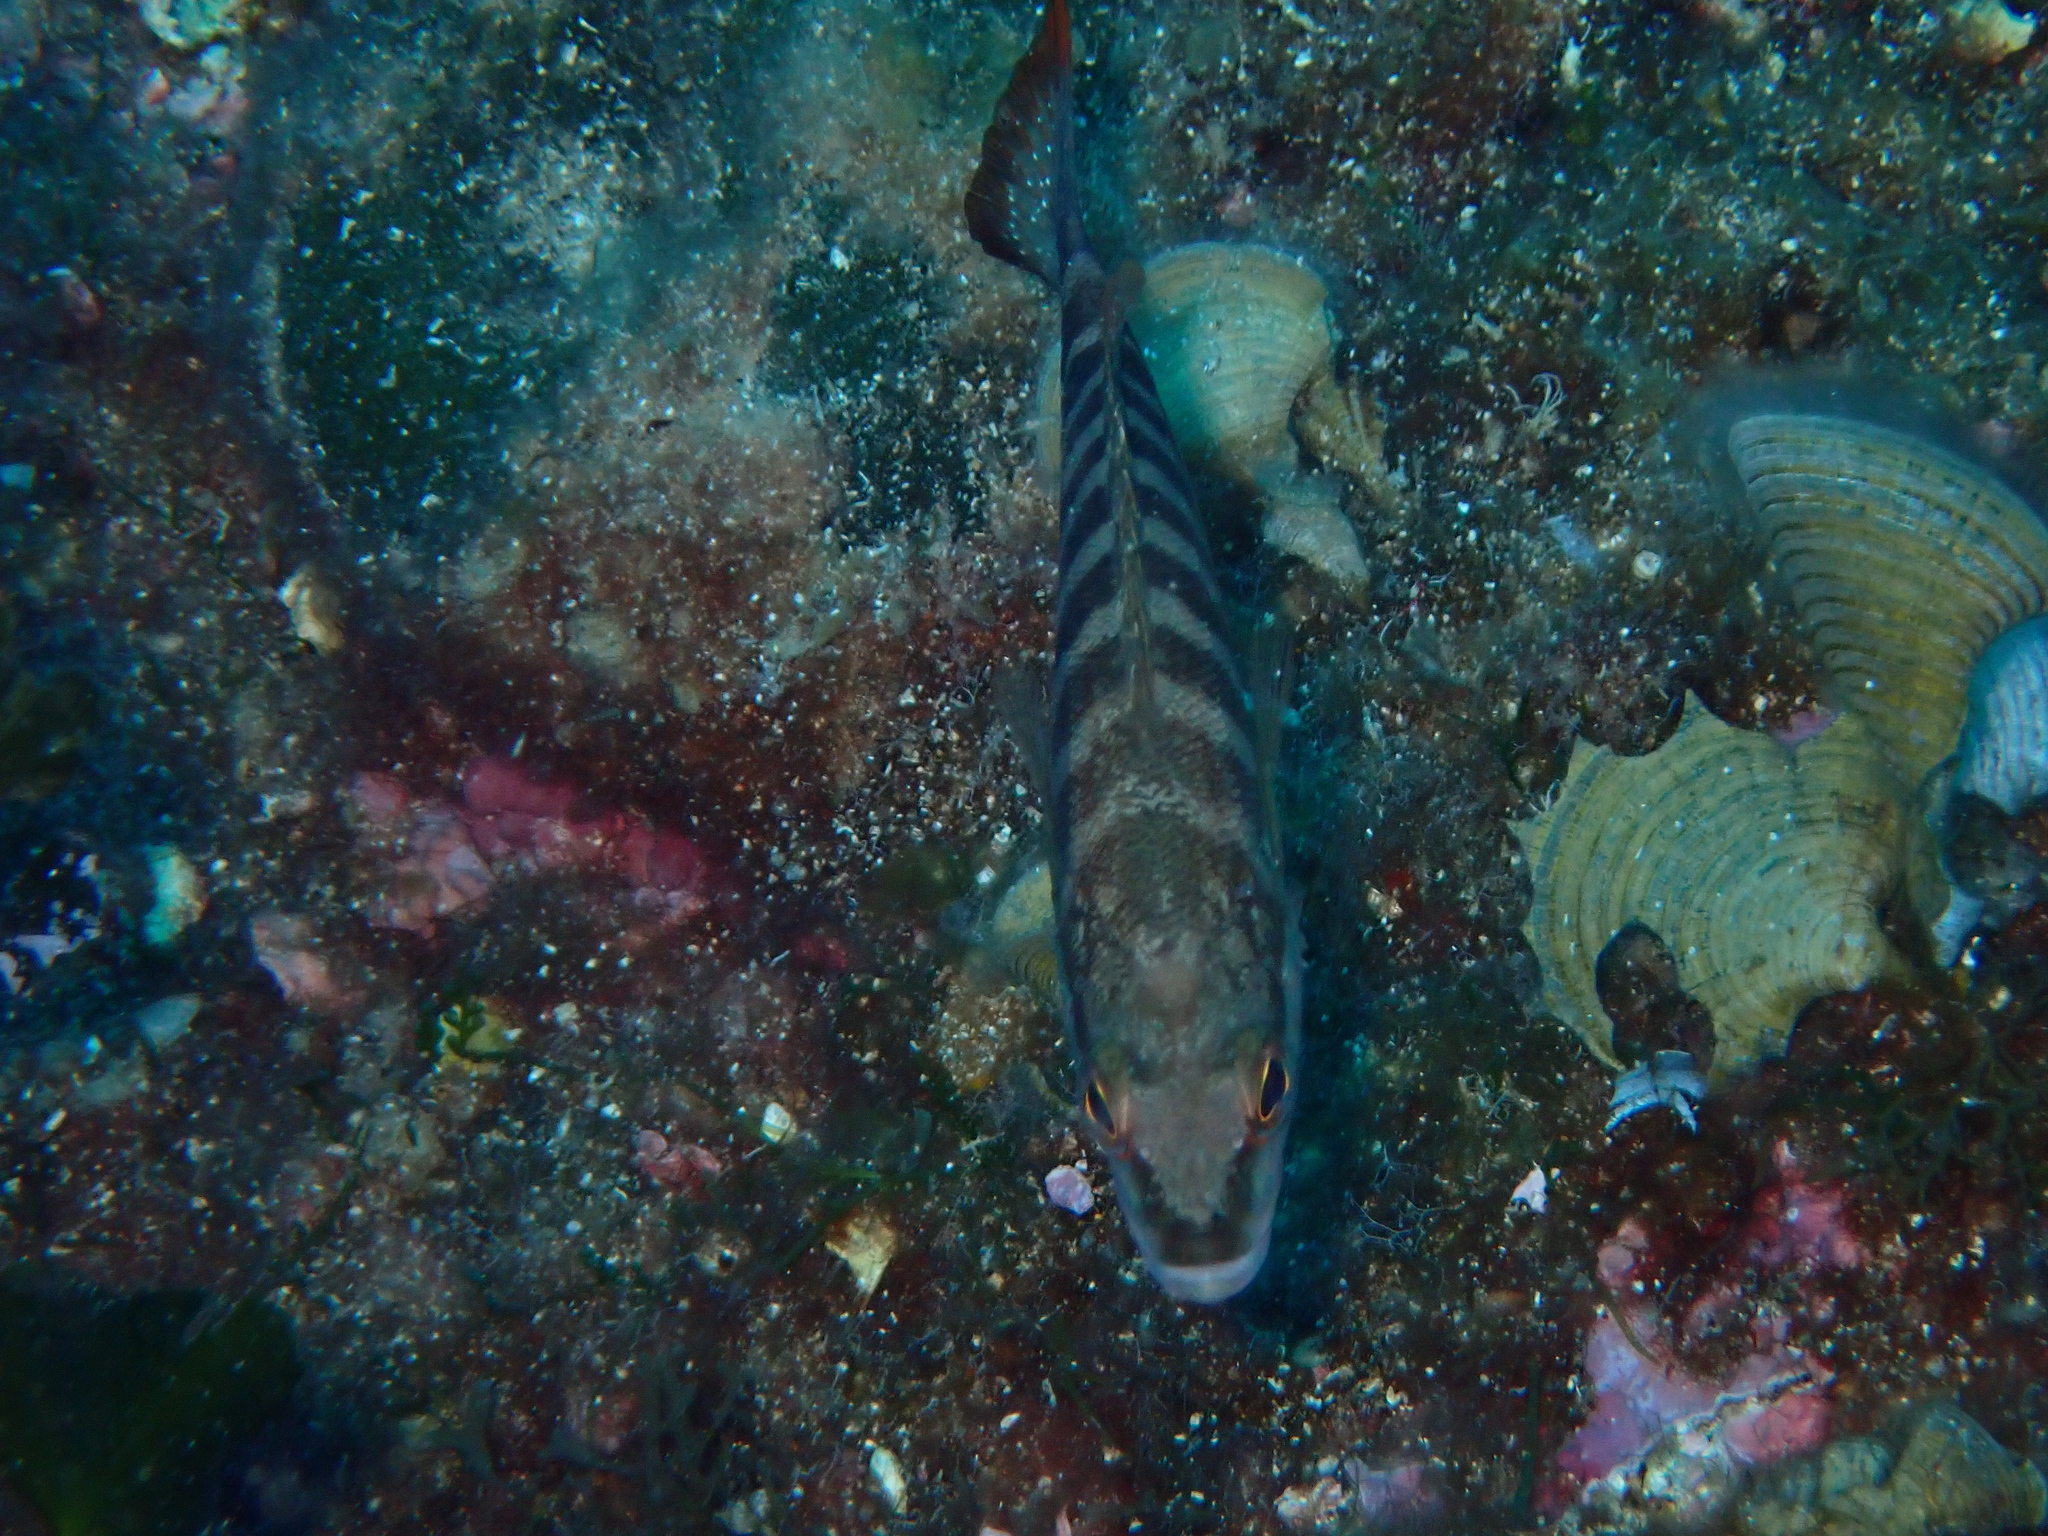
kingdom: Animalia
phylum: Chordata
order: Perciformes
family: Serranidae
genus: Serranus
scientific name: Serranus cabrilla
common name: Comber
